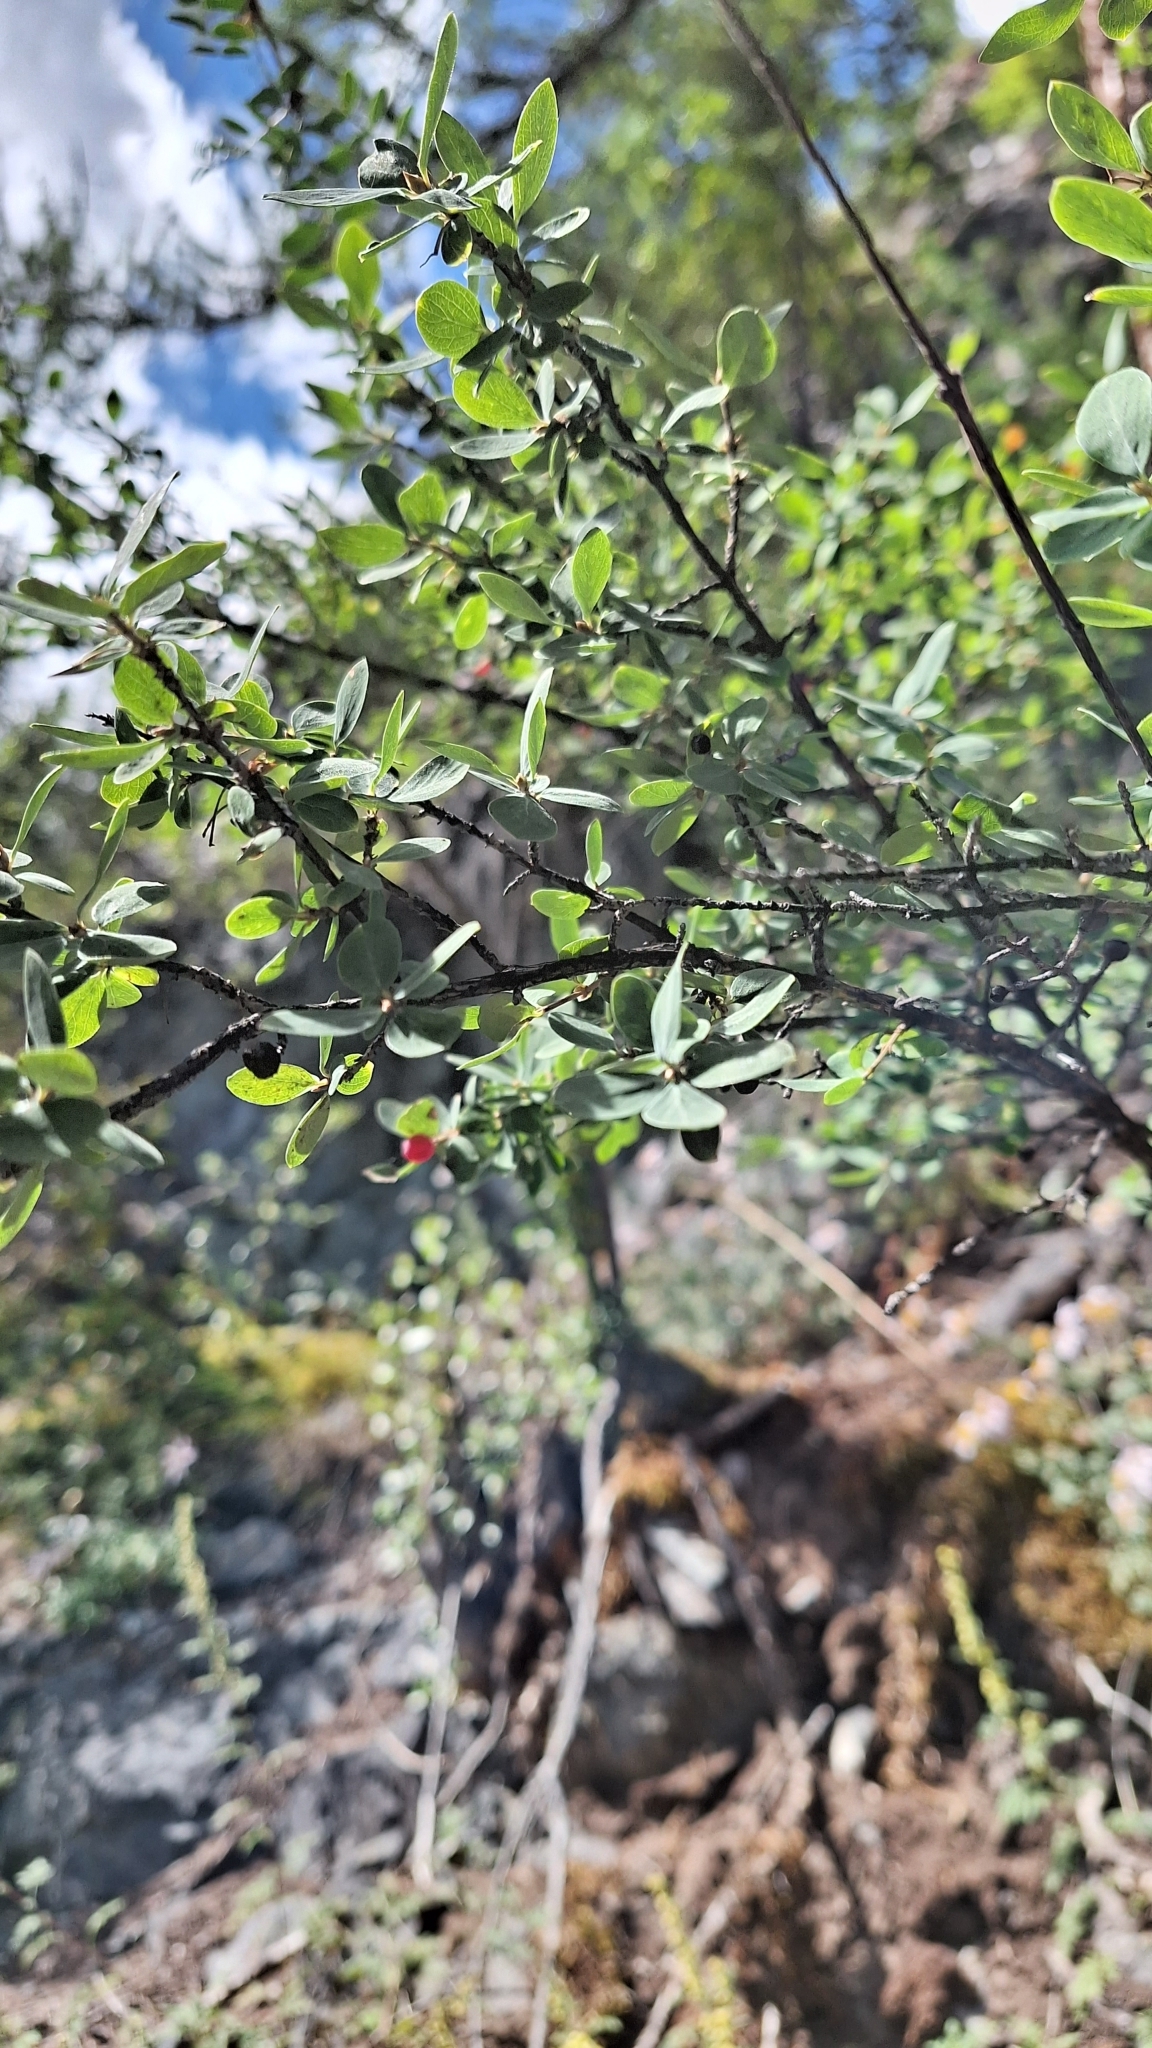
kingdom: Plantae
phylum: Tracheophyta
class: Magnoliopsida
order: Dipsacales
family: Caprifoliaceae
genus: Lonicera
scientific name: Lonicera microphylla
